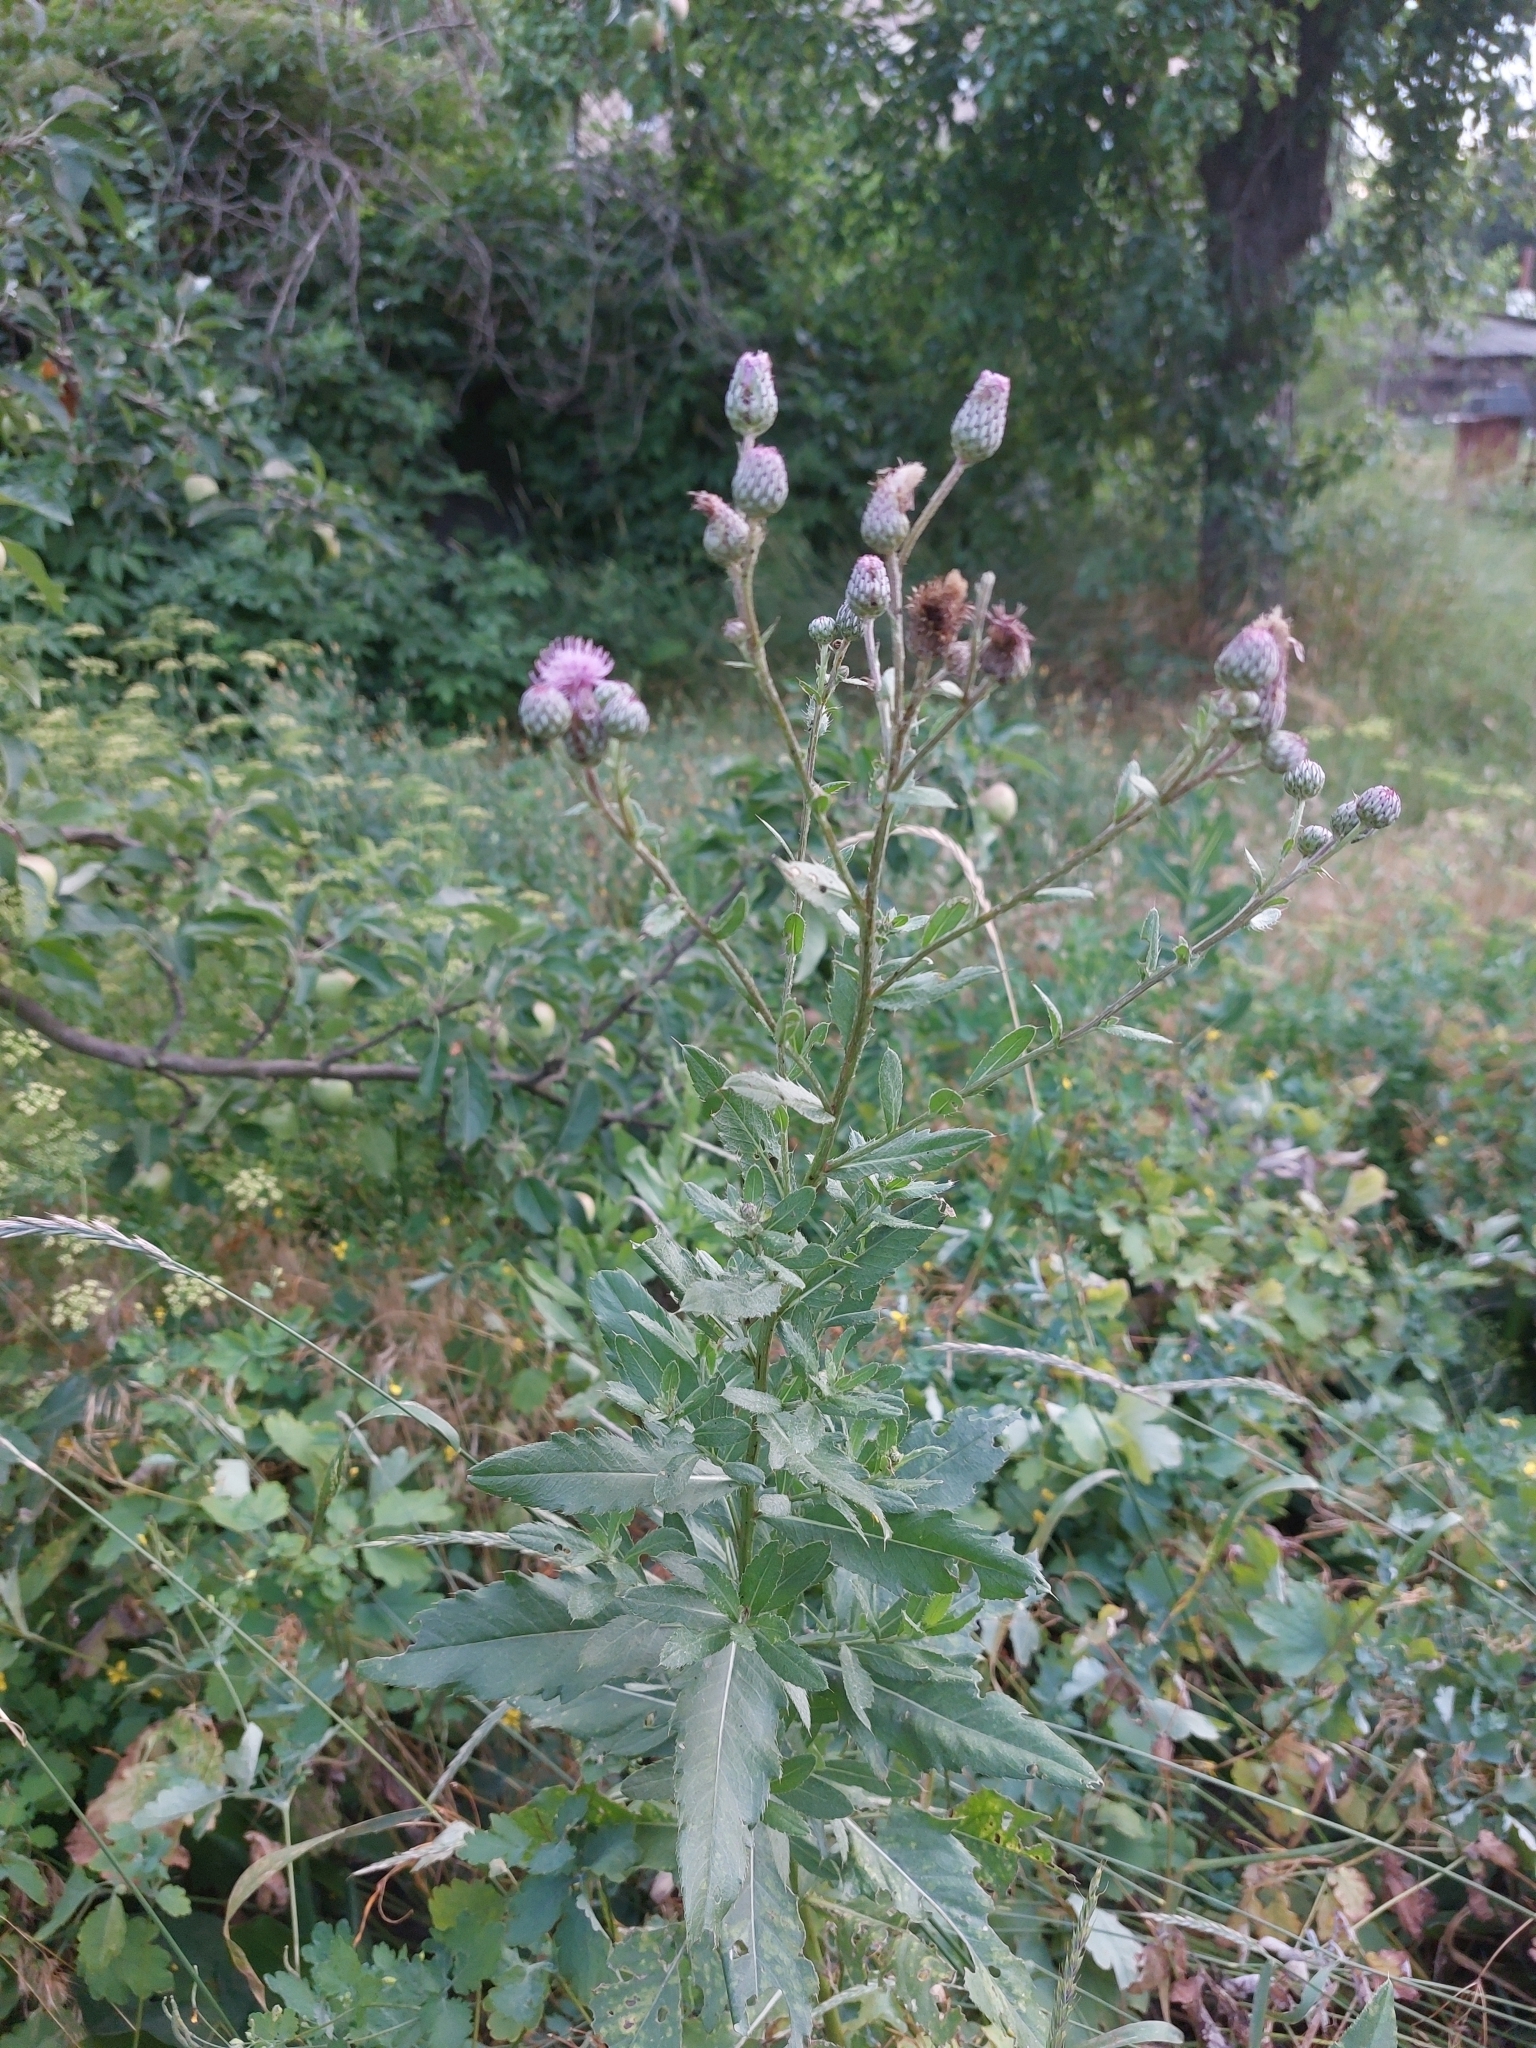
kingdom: Plantae
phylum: Tracheophyta
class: Magnoliopsida
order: Asterales
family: Asteraceae
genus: Cirsium
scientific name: Cirsium arvense
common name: Creeping thistle
